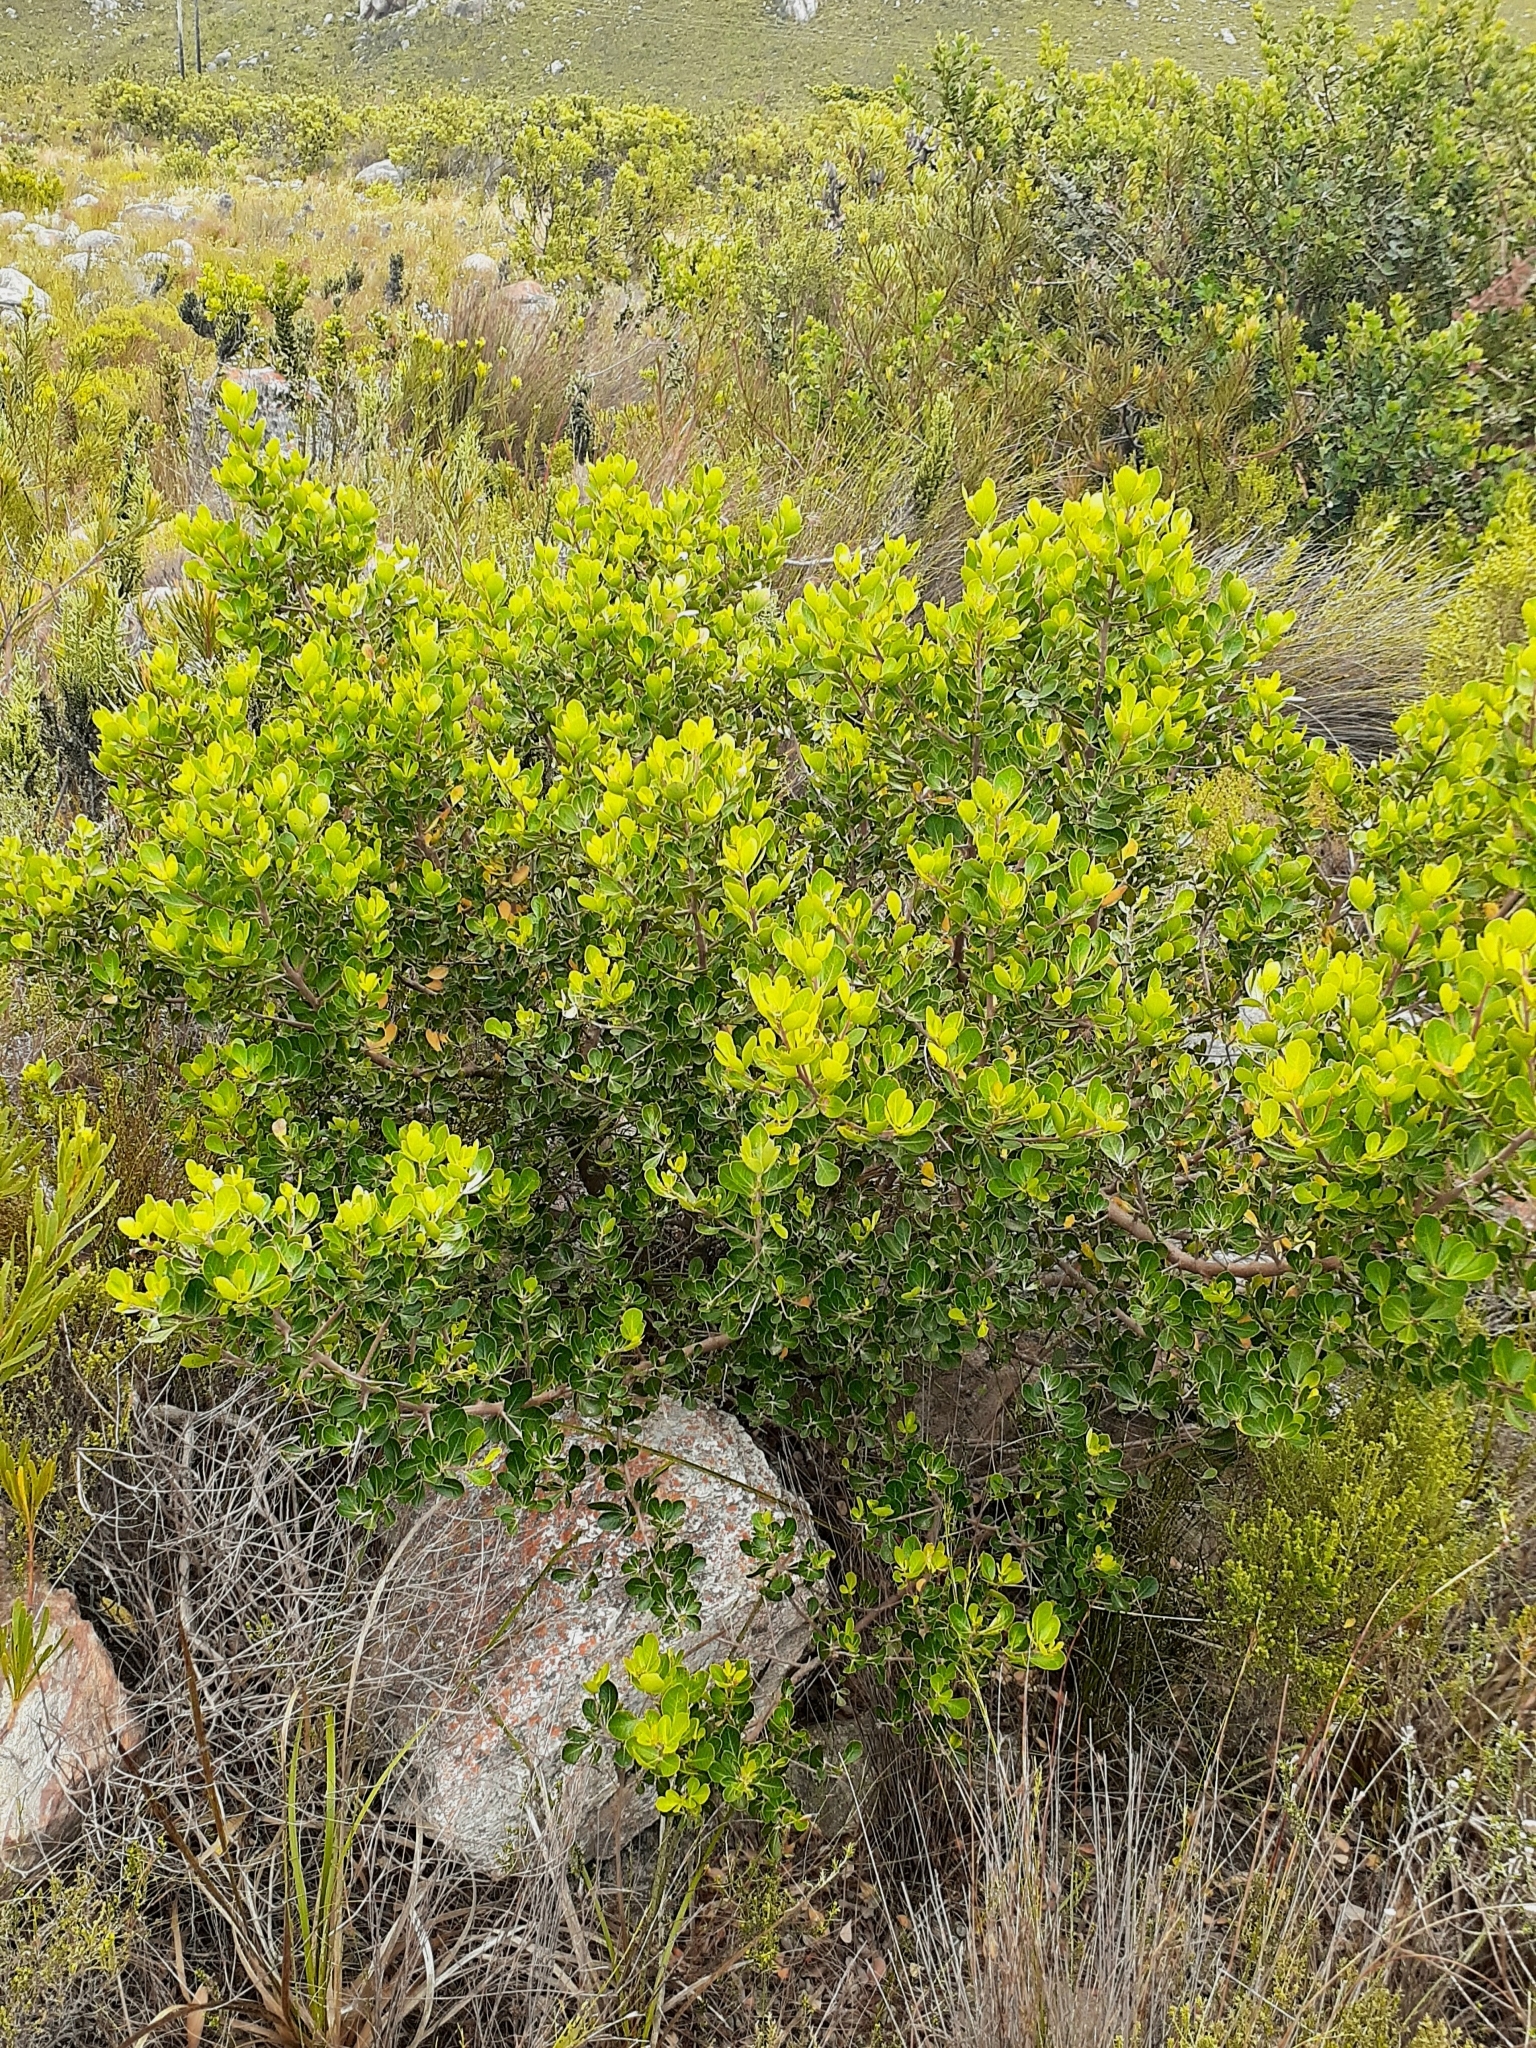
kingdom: Plantae
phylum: Tracheophyta
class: Magnoliopsida
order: Sapindales
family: Anacardiaceae
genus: Searsia
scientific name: Searsia lucida
